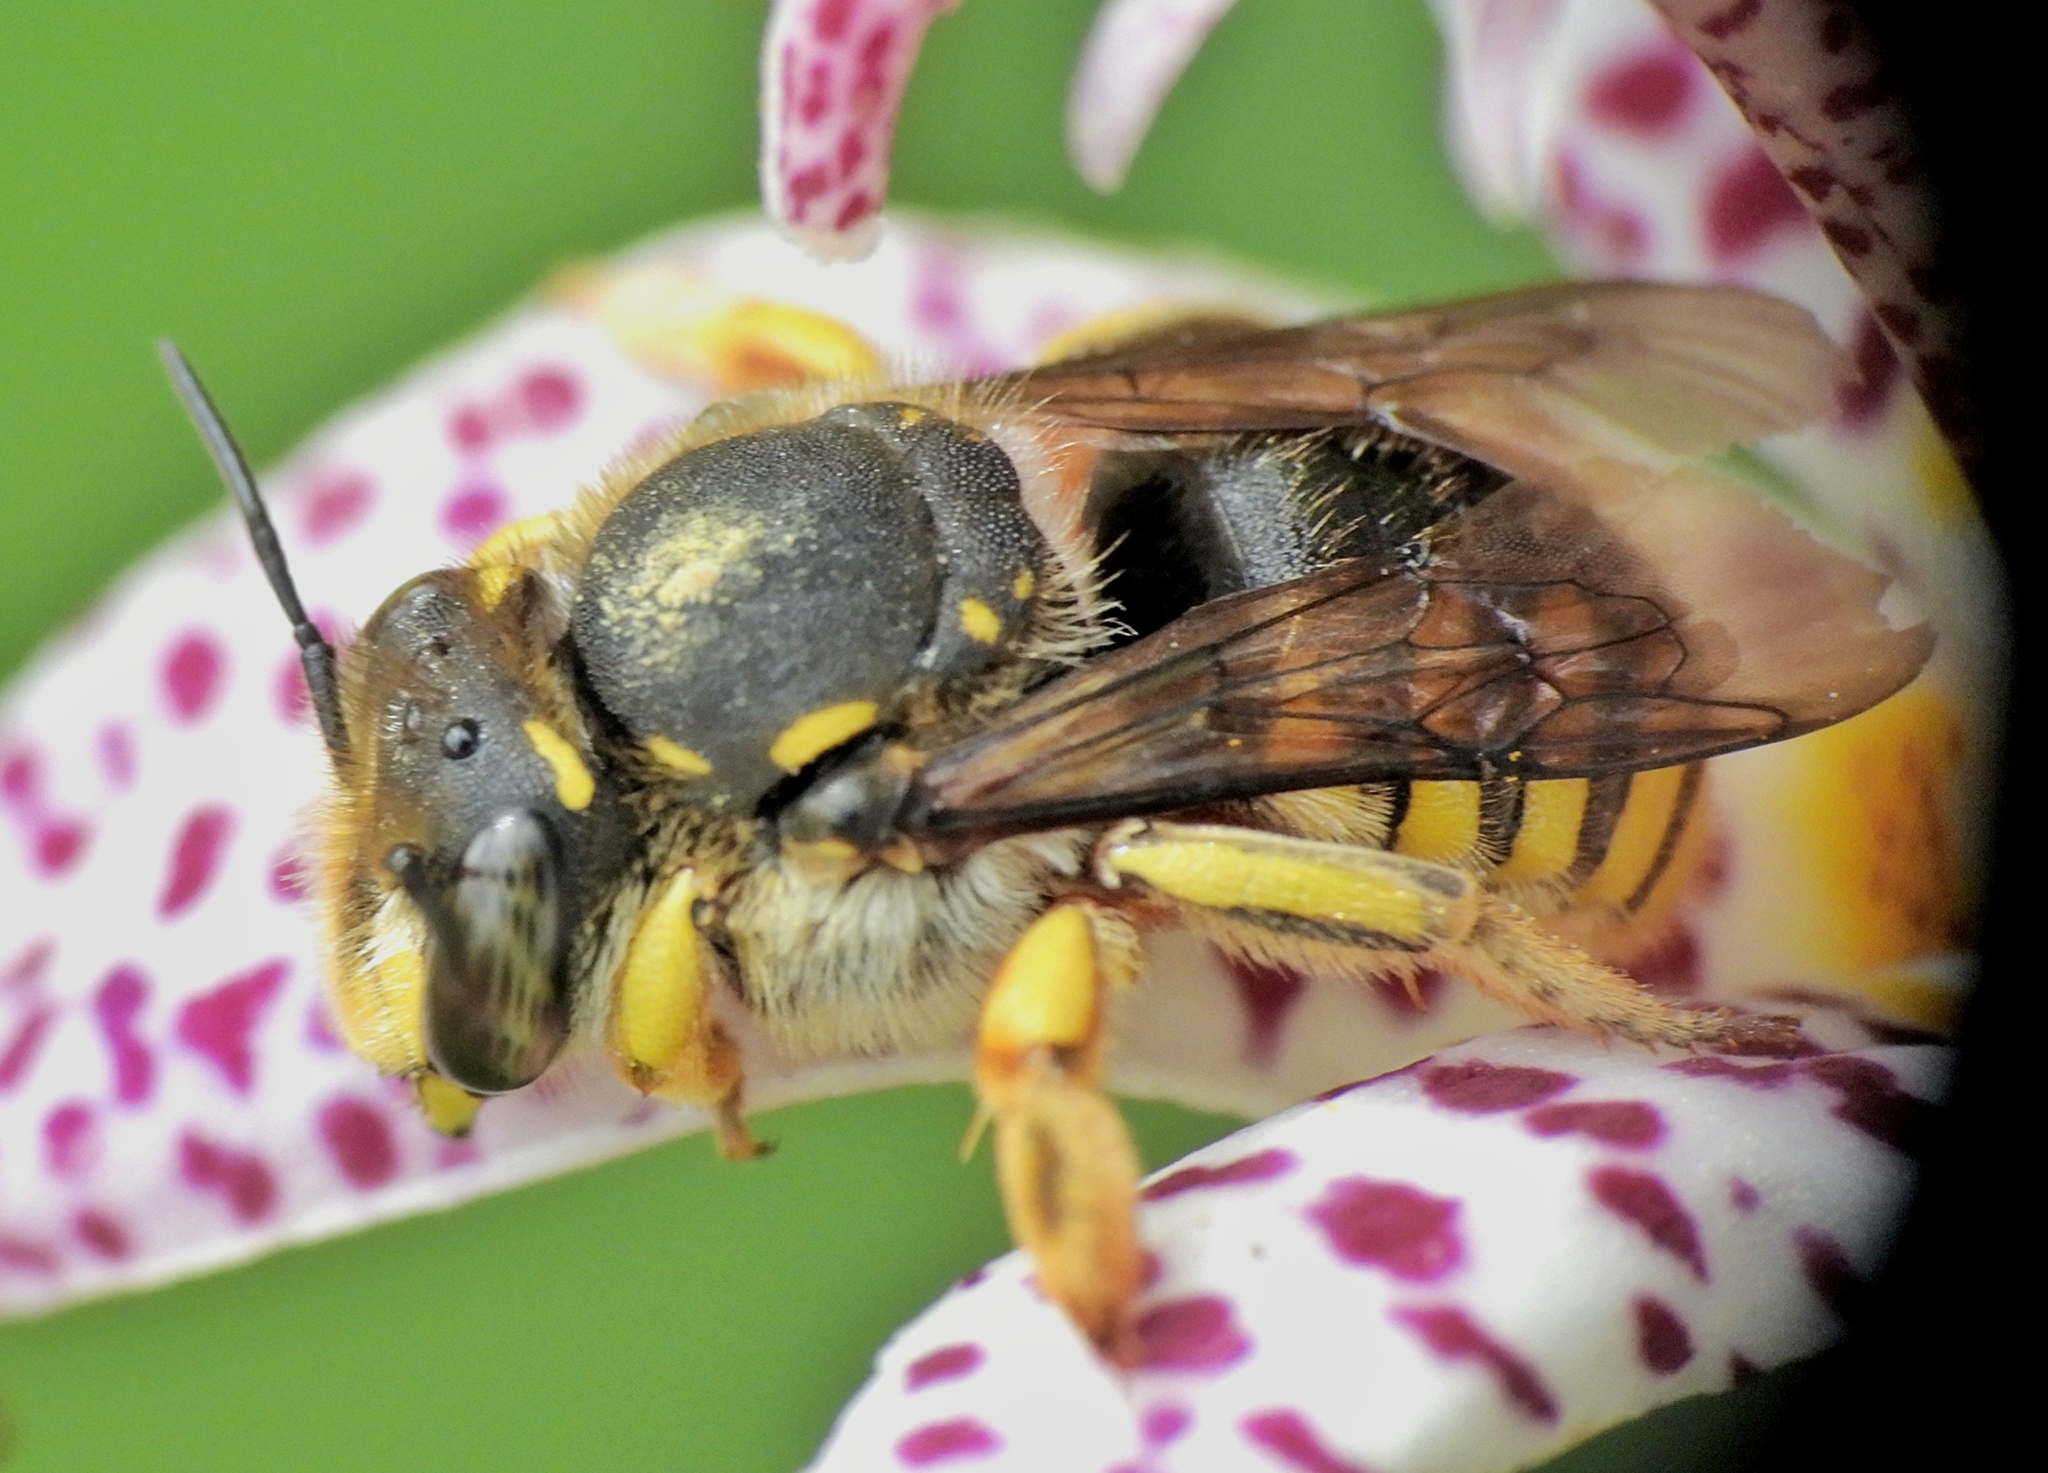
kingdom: Animalia
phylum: Arthropoda
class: Insecta
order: Hymenoptera
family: Megachilidae
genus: Anthidium
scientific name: Anthidium manicatum
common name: Wool carder bee
